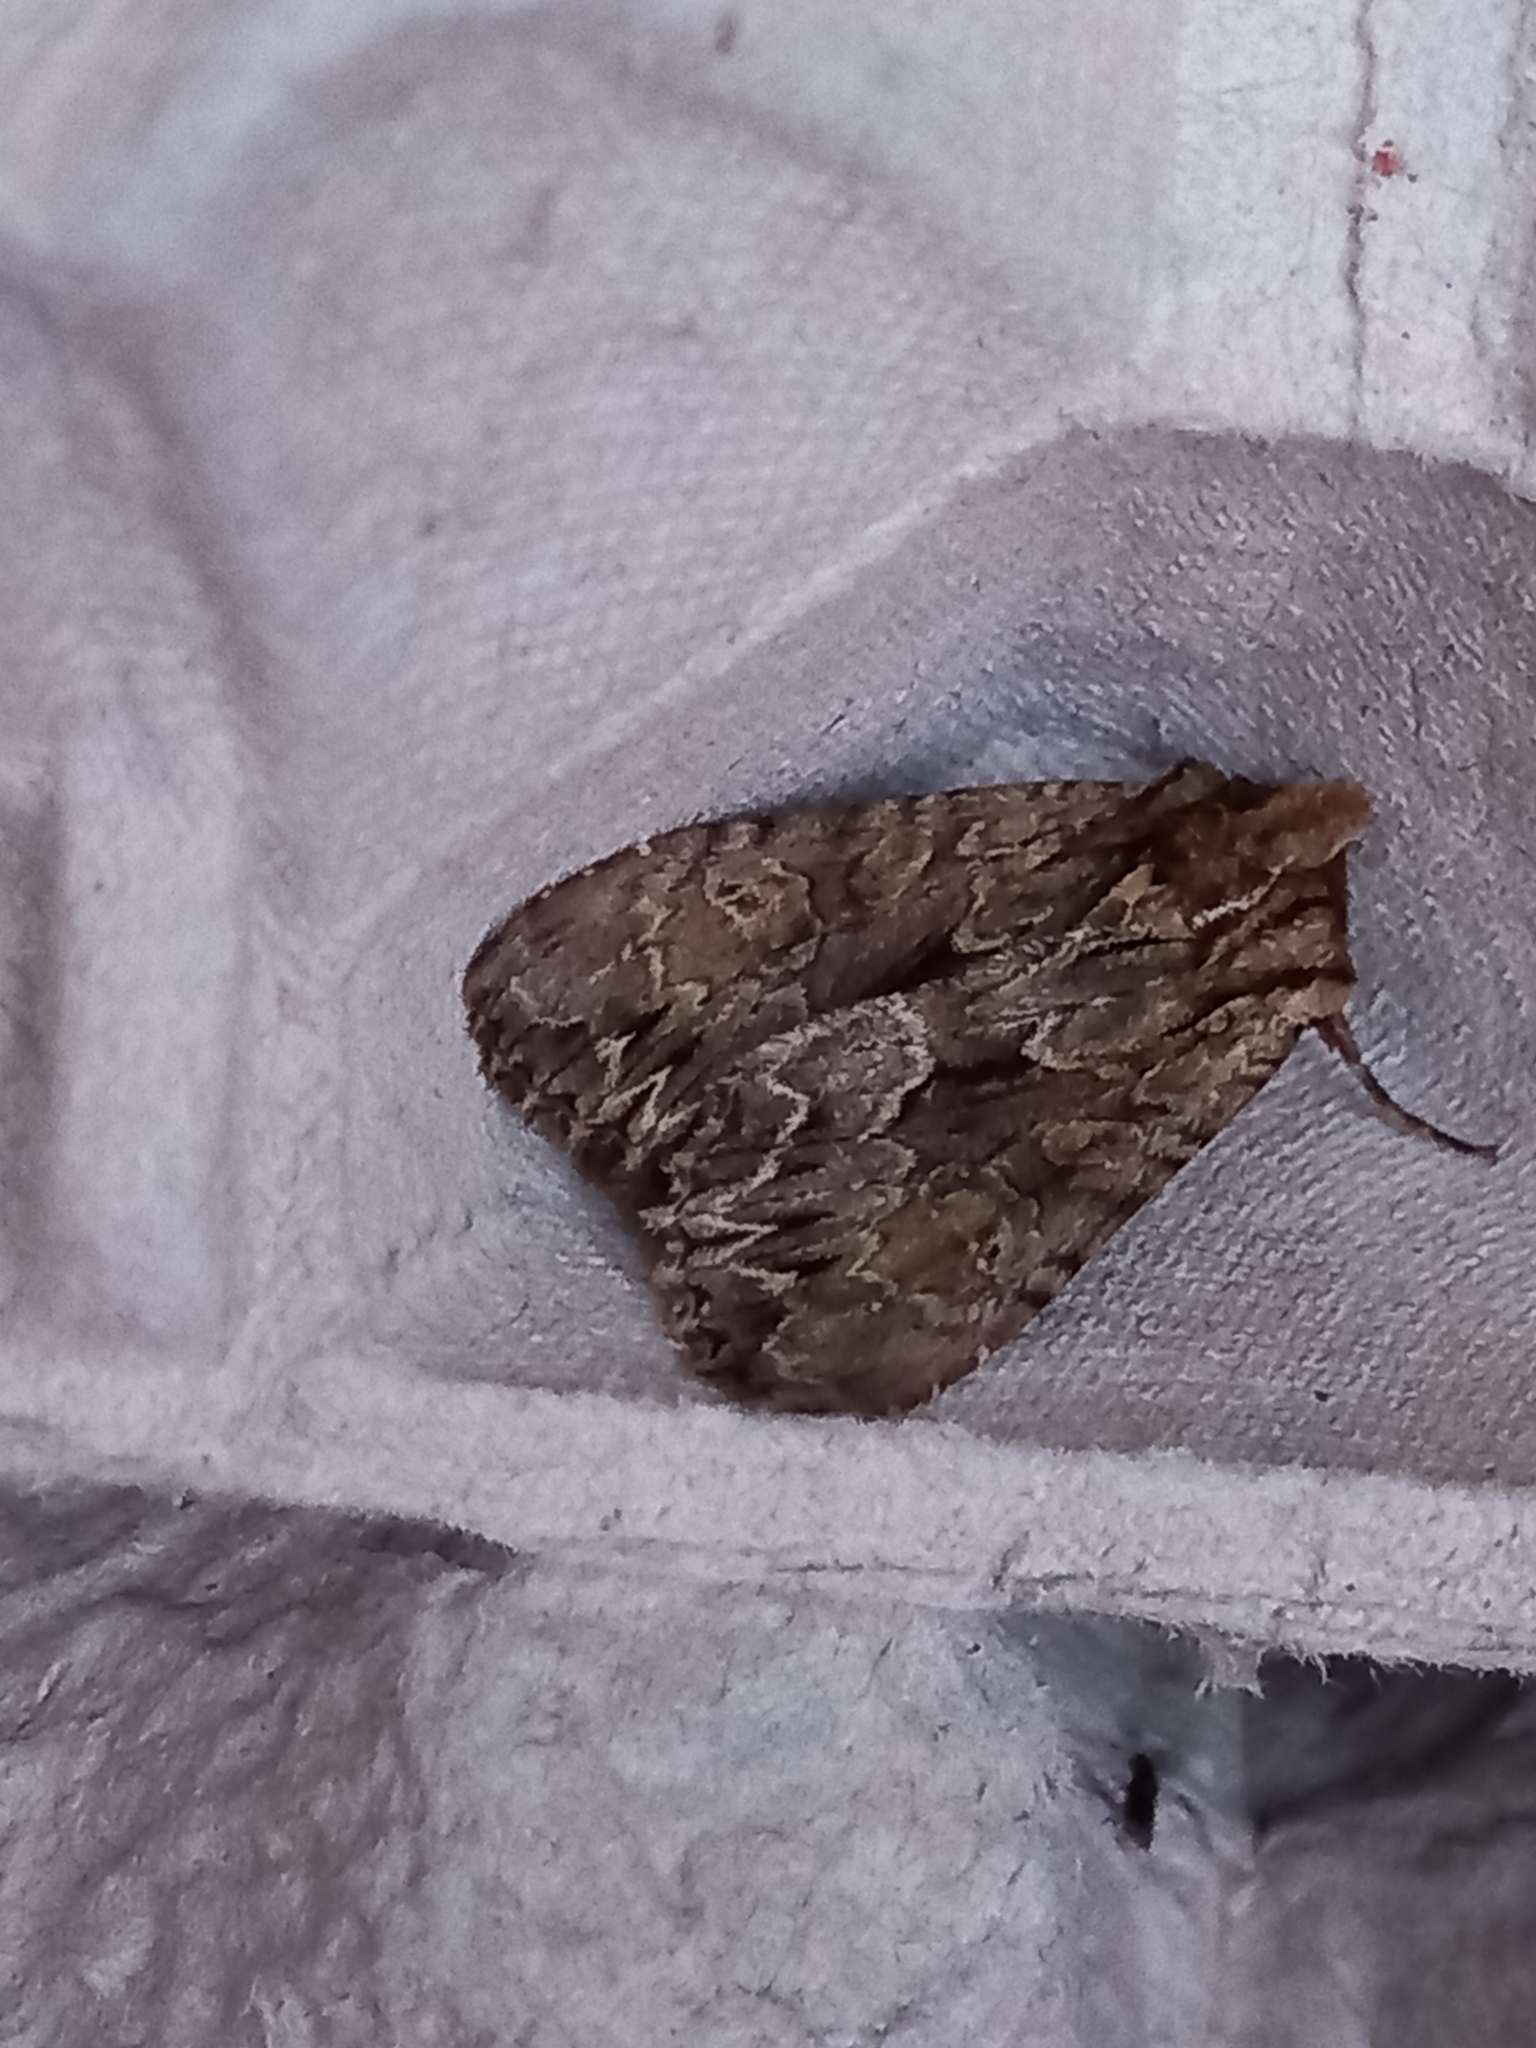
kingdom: Animalia
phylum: Arthropoda
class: Insecta
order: Lepidoptera
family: Noctuidae
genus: Apamea
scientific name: Apamea monoglypha
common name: Dark arches
